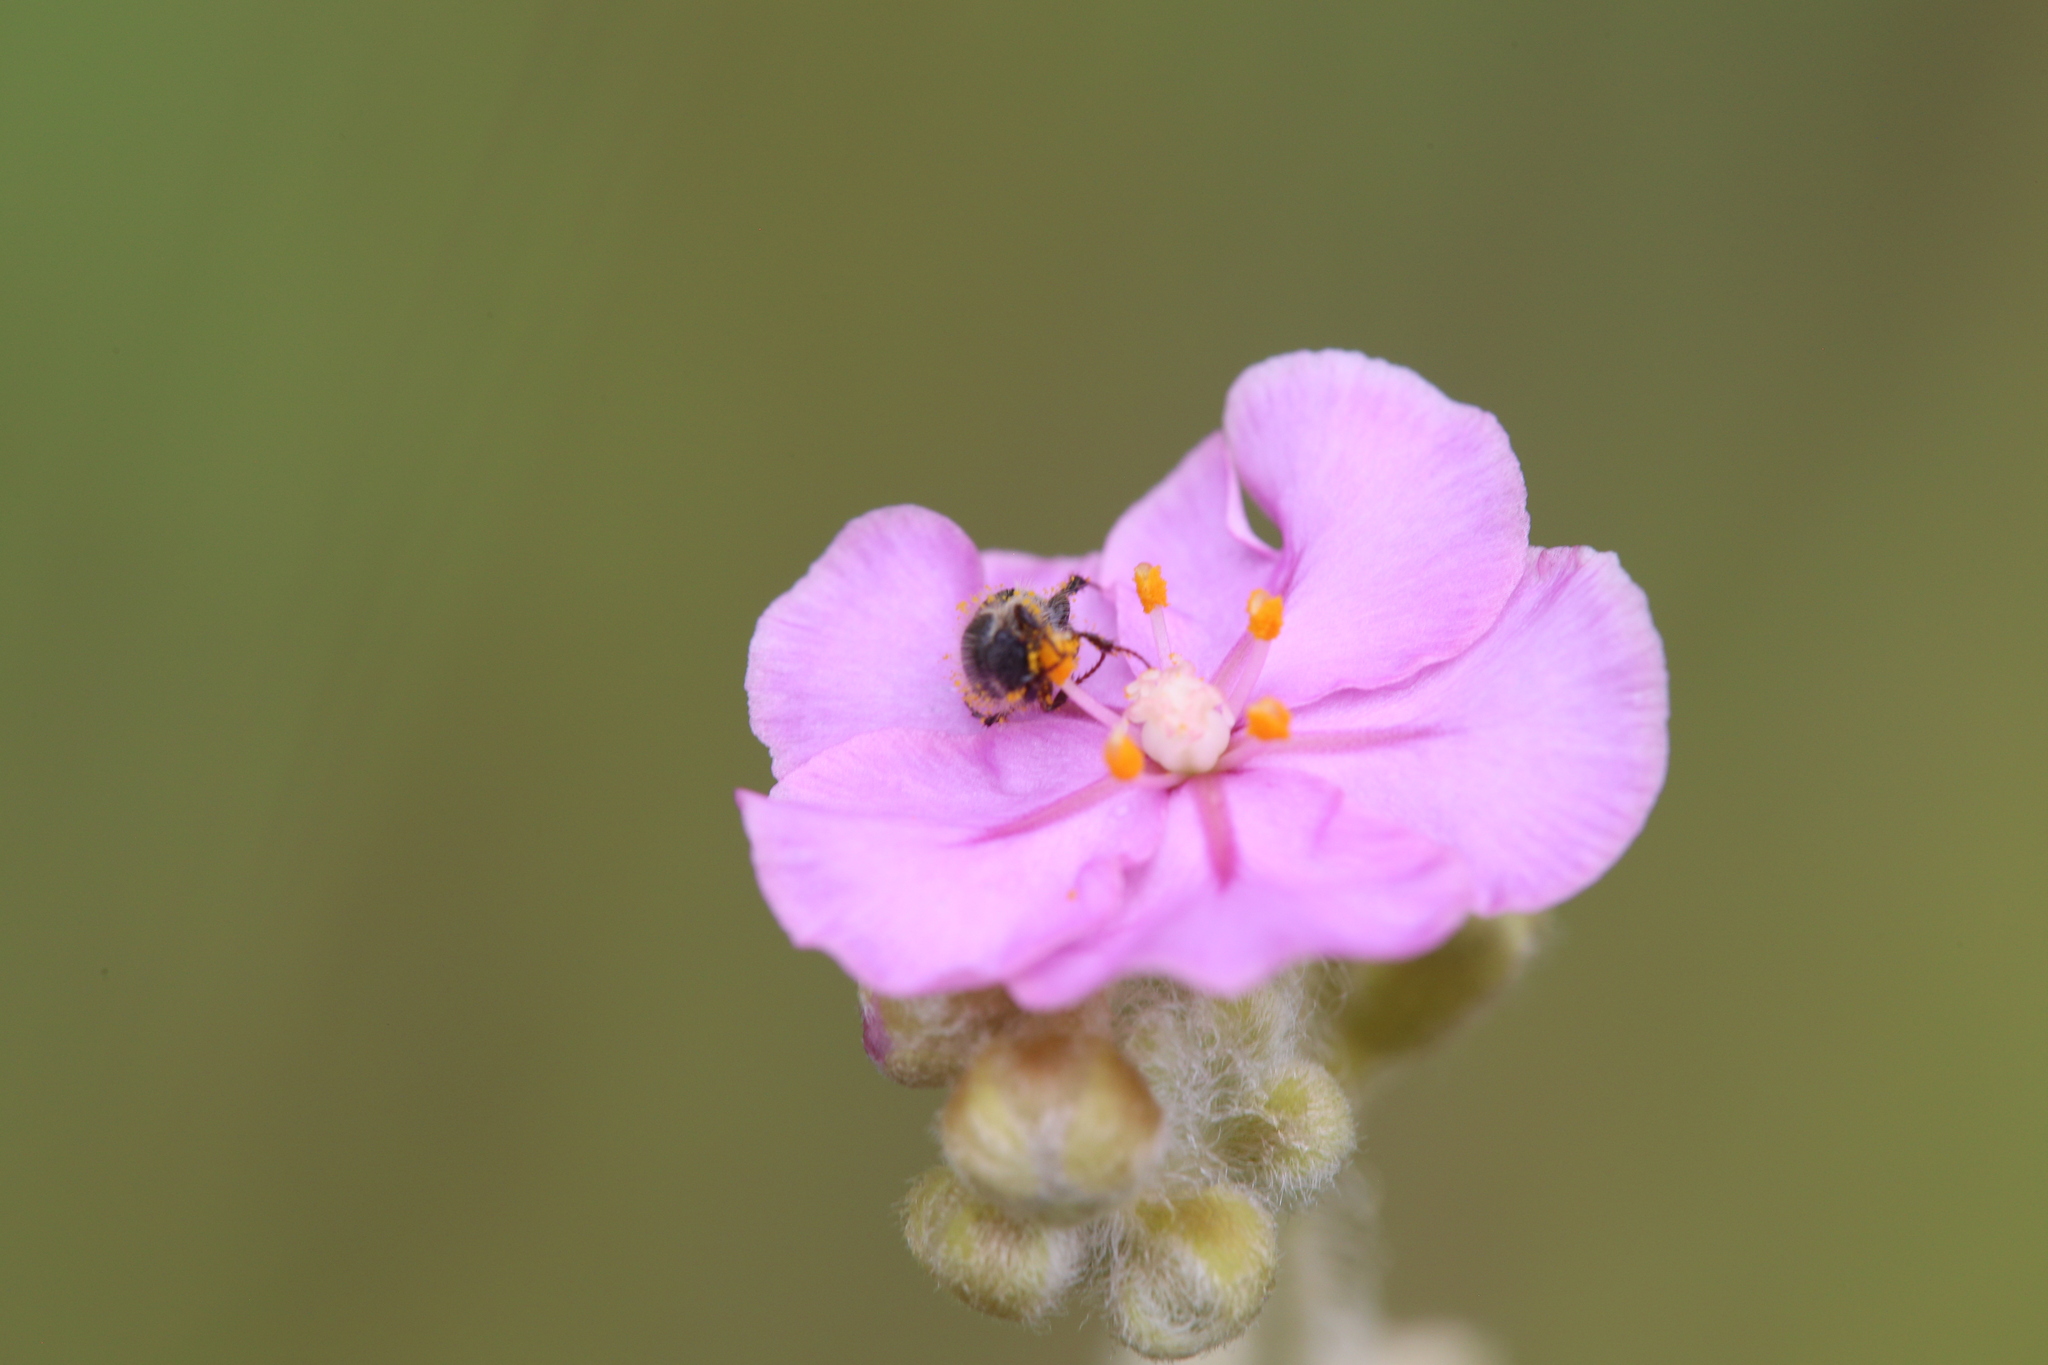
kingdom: Plantae
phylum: Tracheophyta
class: Magnoliopsida
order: Caryophyllales
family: Droseraceae
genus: Drosera
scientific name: Drosera brevicornis
